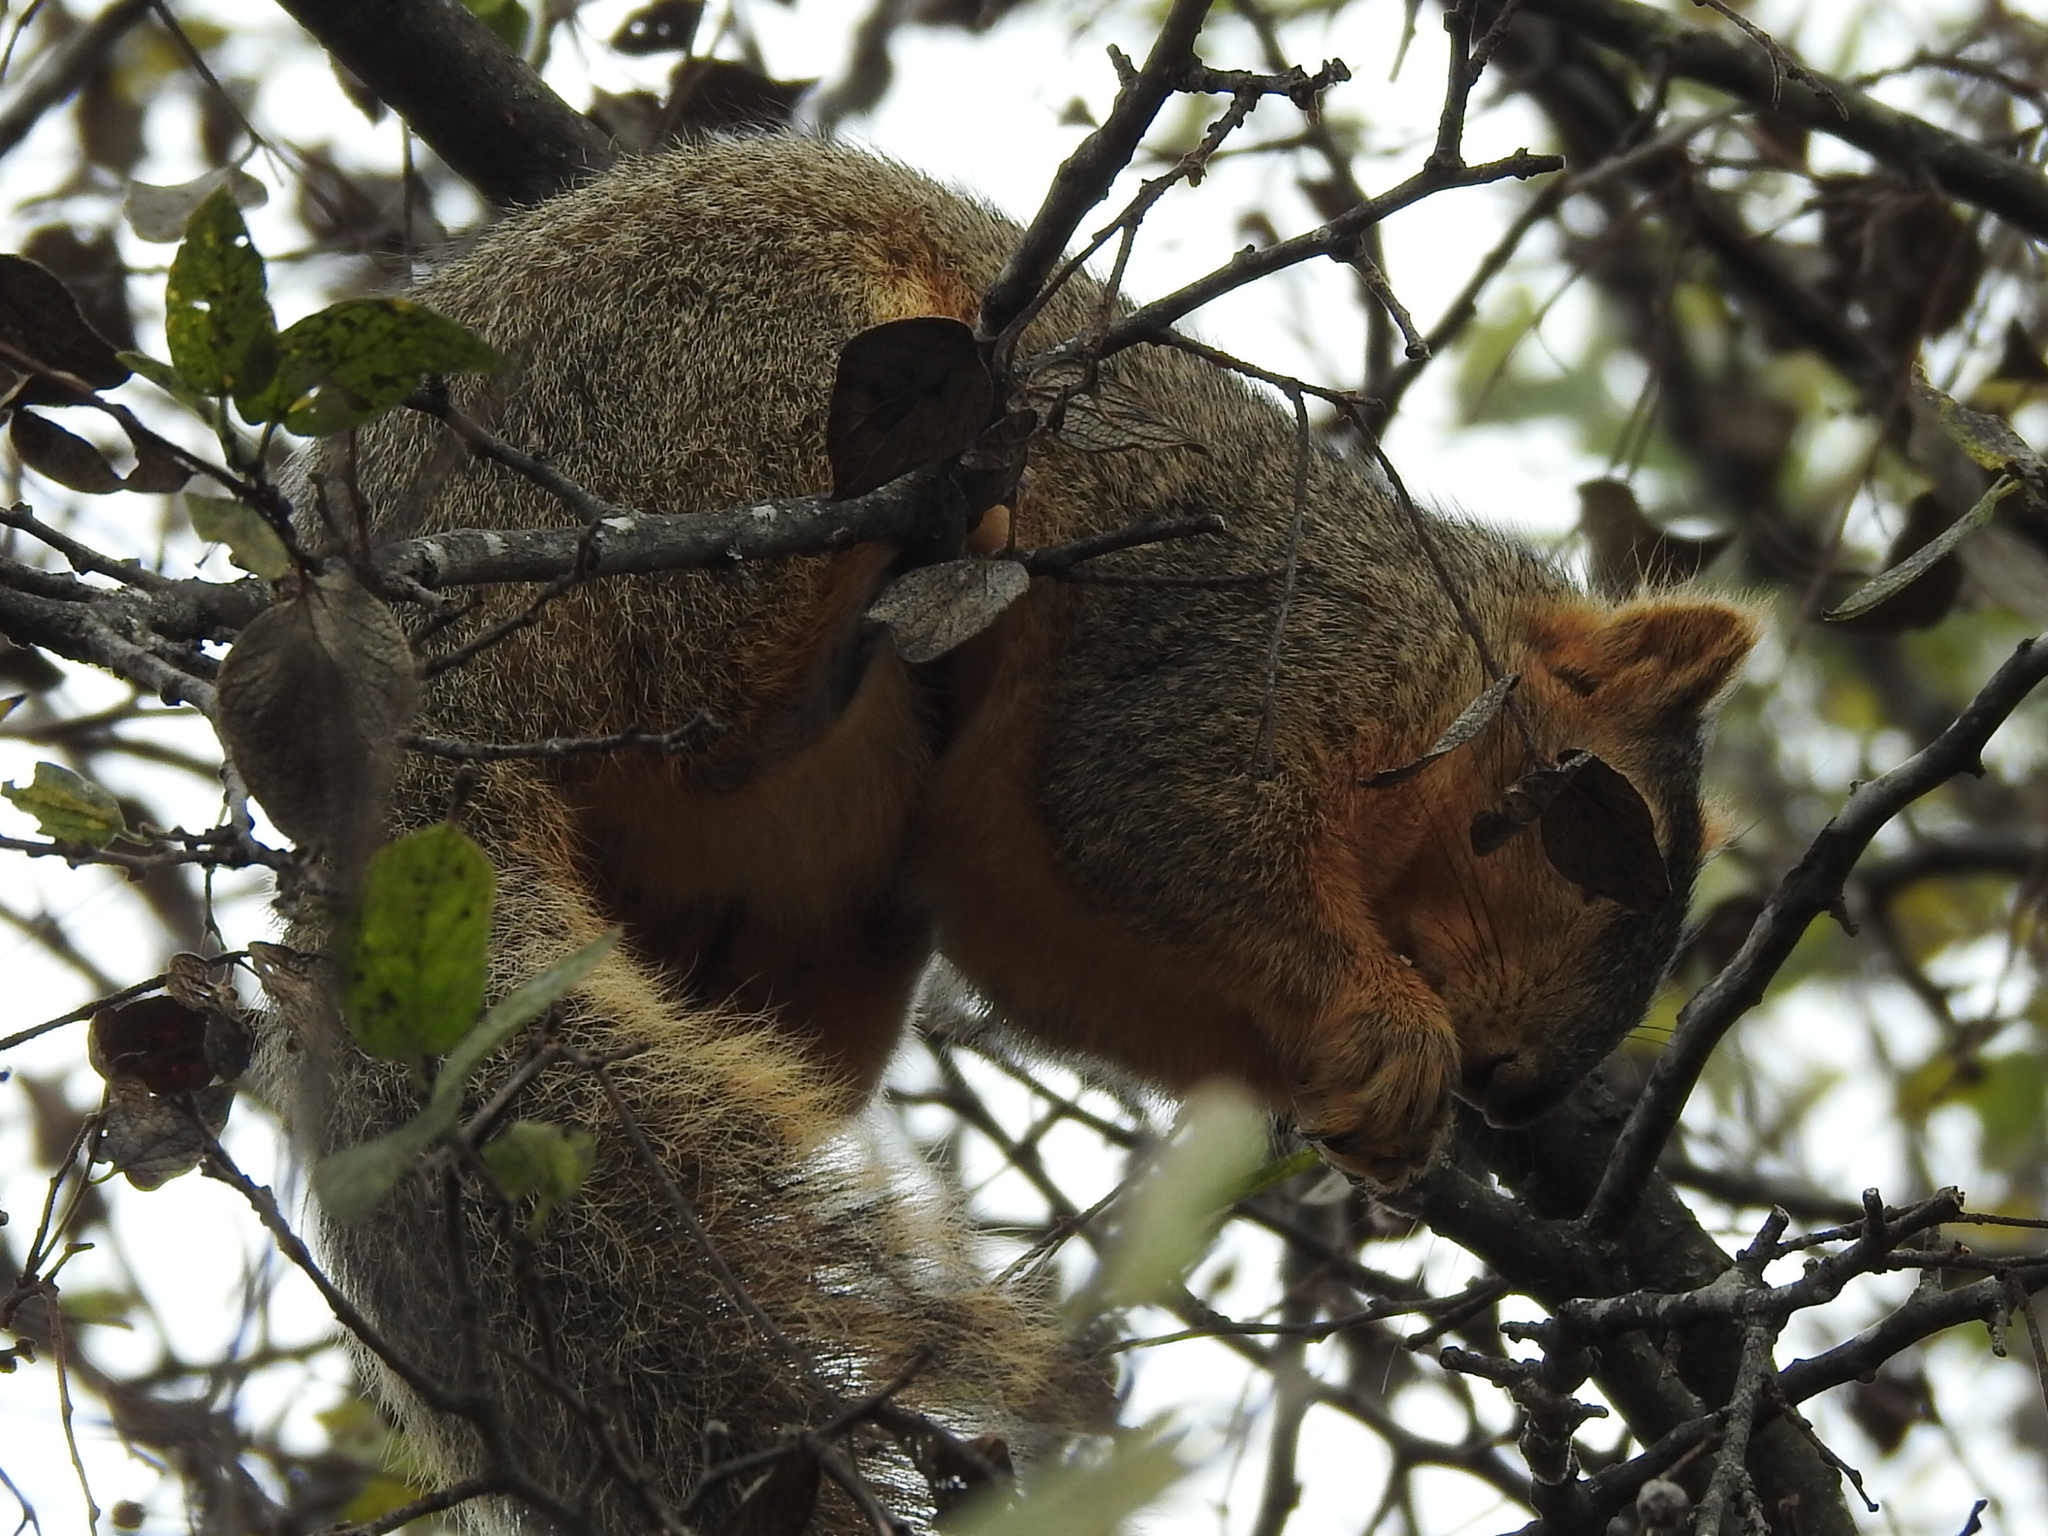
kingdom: Animalia
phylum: Chordata
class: Mammalia
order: Rodentia
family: Sciuridae
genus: Sciurus
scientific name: Sciurus niger
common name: Fox squirrel
